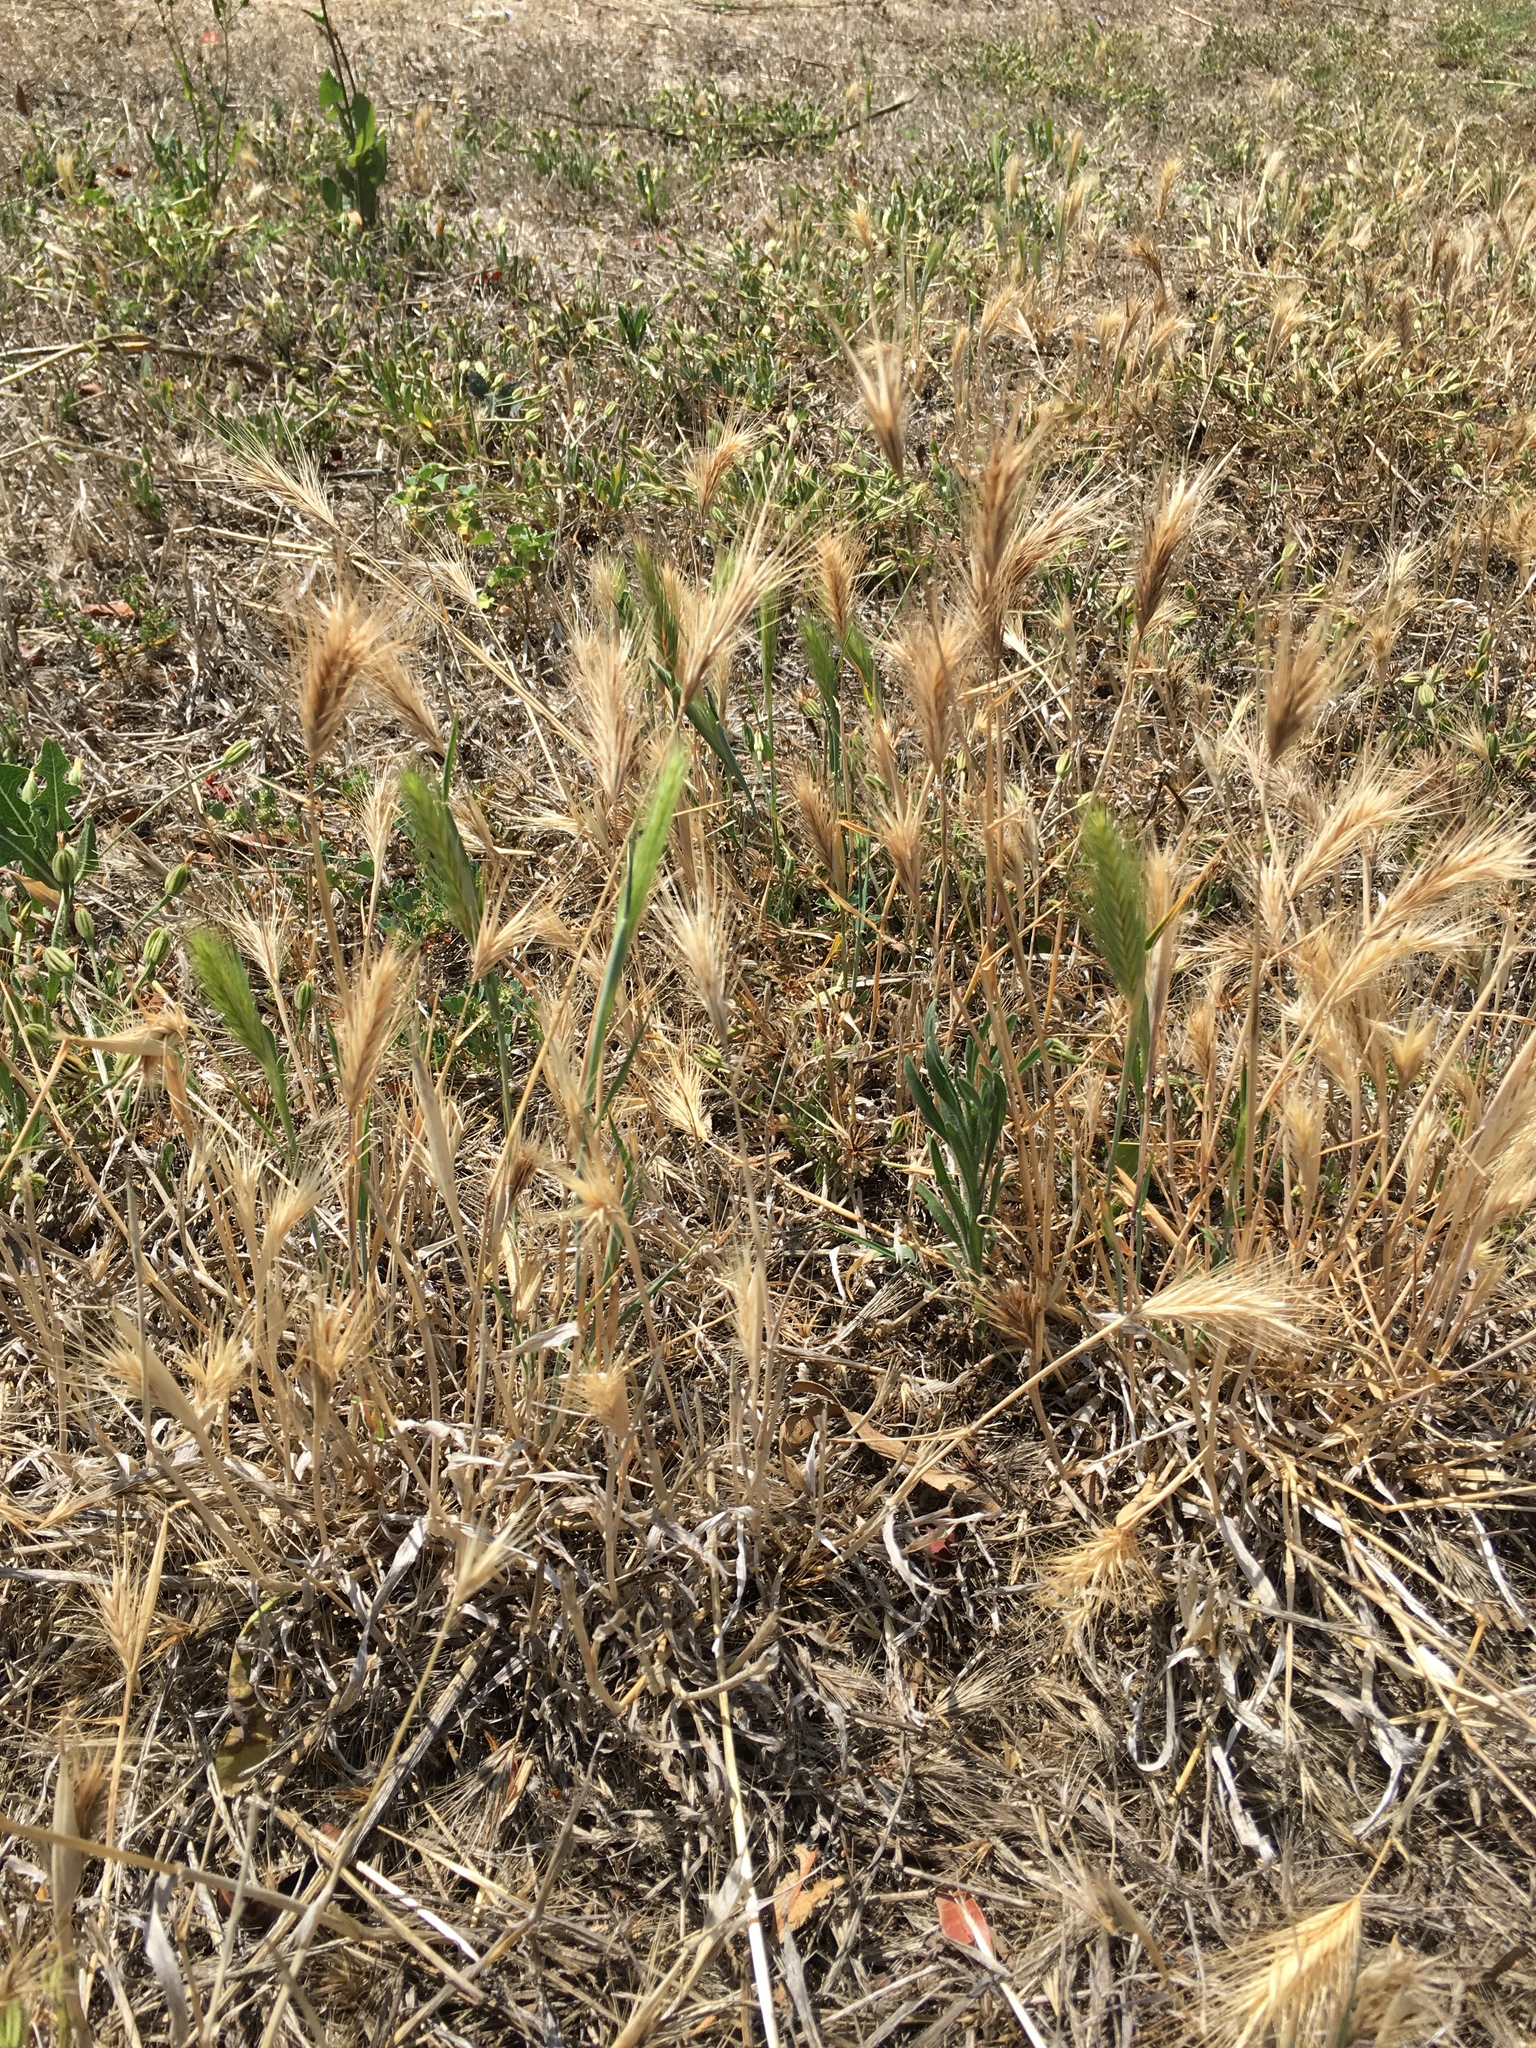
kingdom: Plantae
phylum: Tracheophyta
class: Liliopsida
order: Poales
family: Poaceae
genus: Hordeum
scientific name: Hordeum murinum
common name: Wall barley
